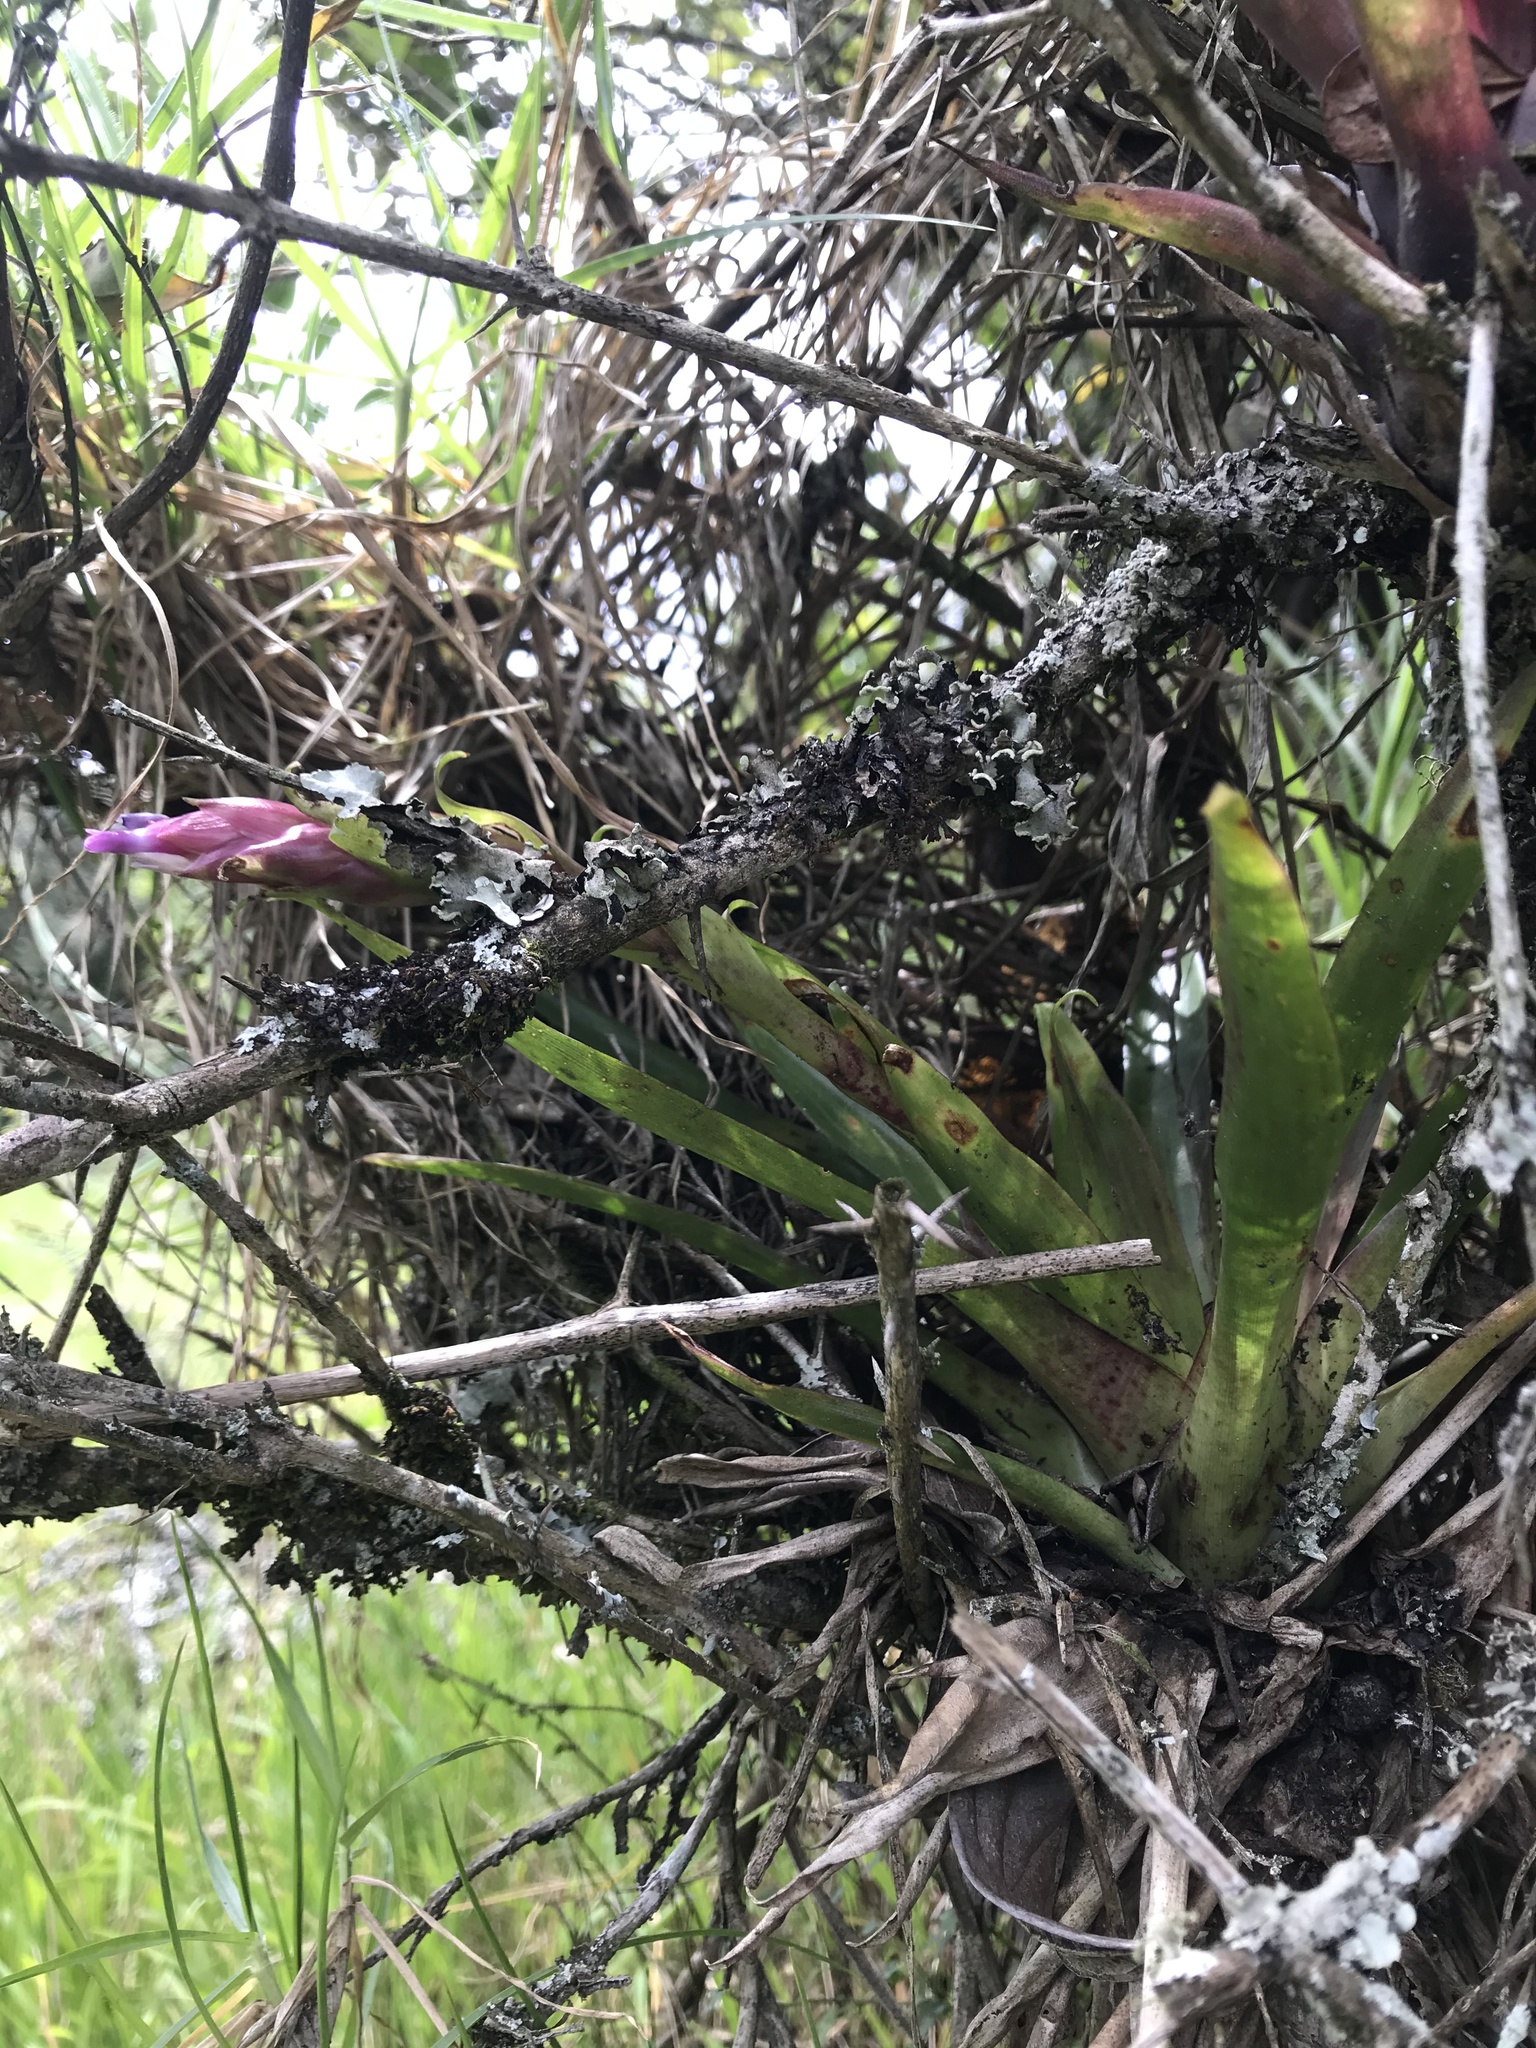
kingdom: Plantae
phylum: Tracheophyta
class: Liliopsida
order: Poales
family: Bromeliaceae
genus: Tillandsia
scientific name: Tillandsia biflora
